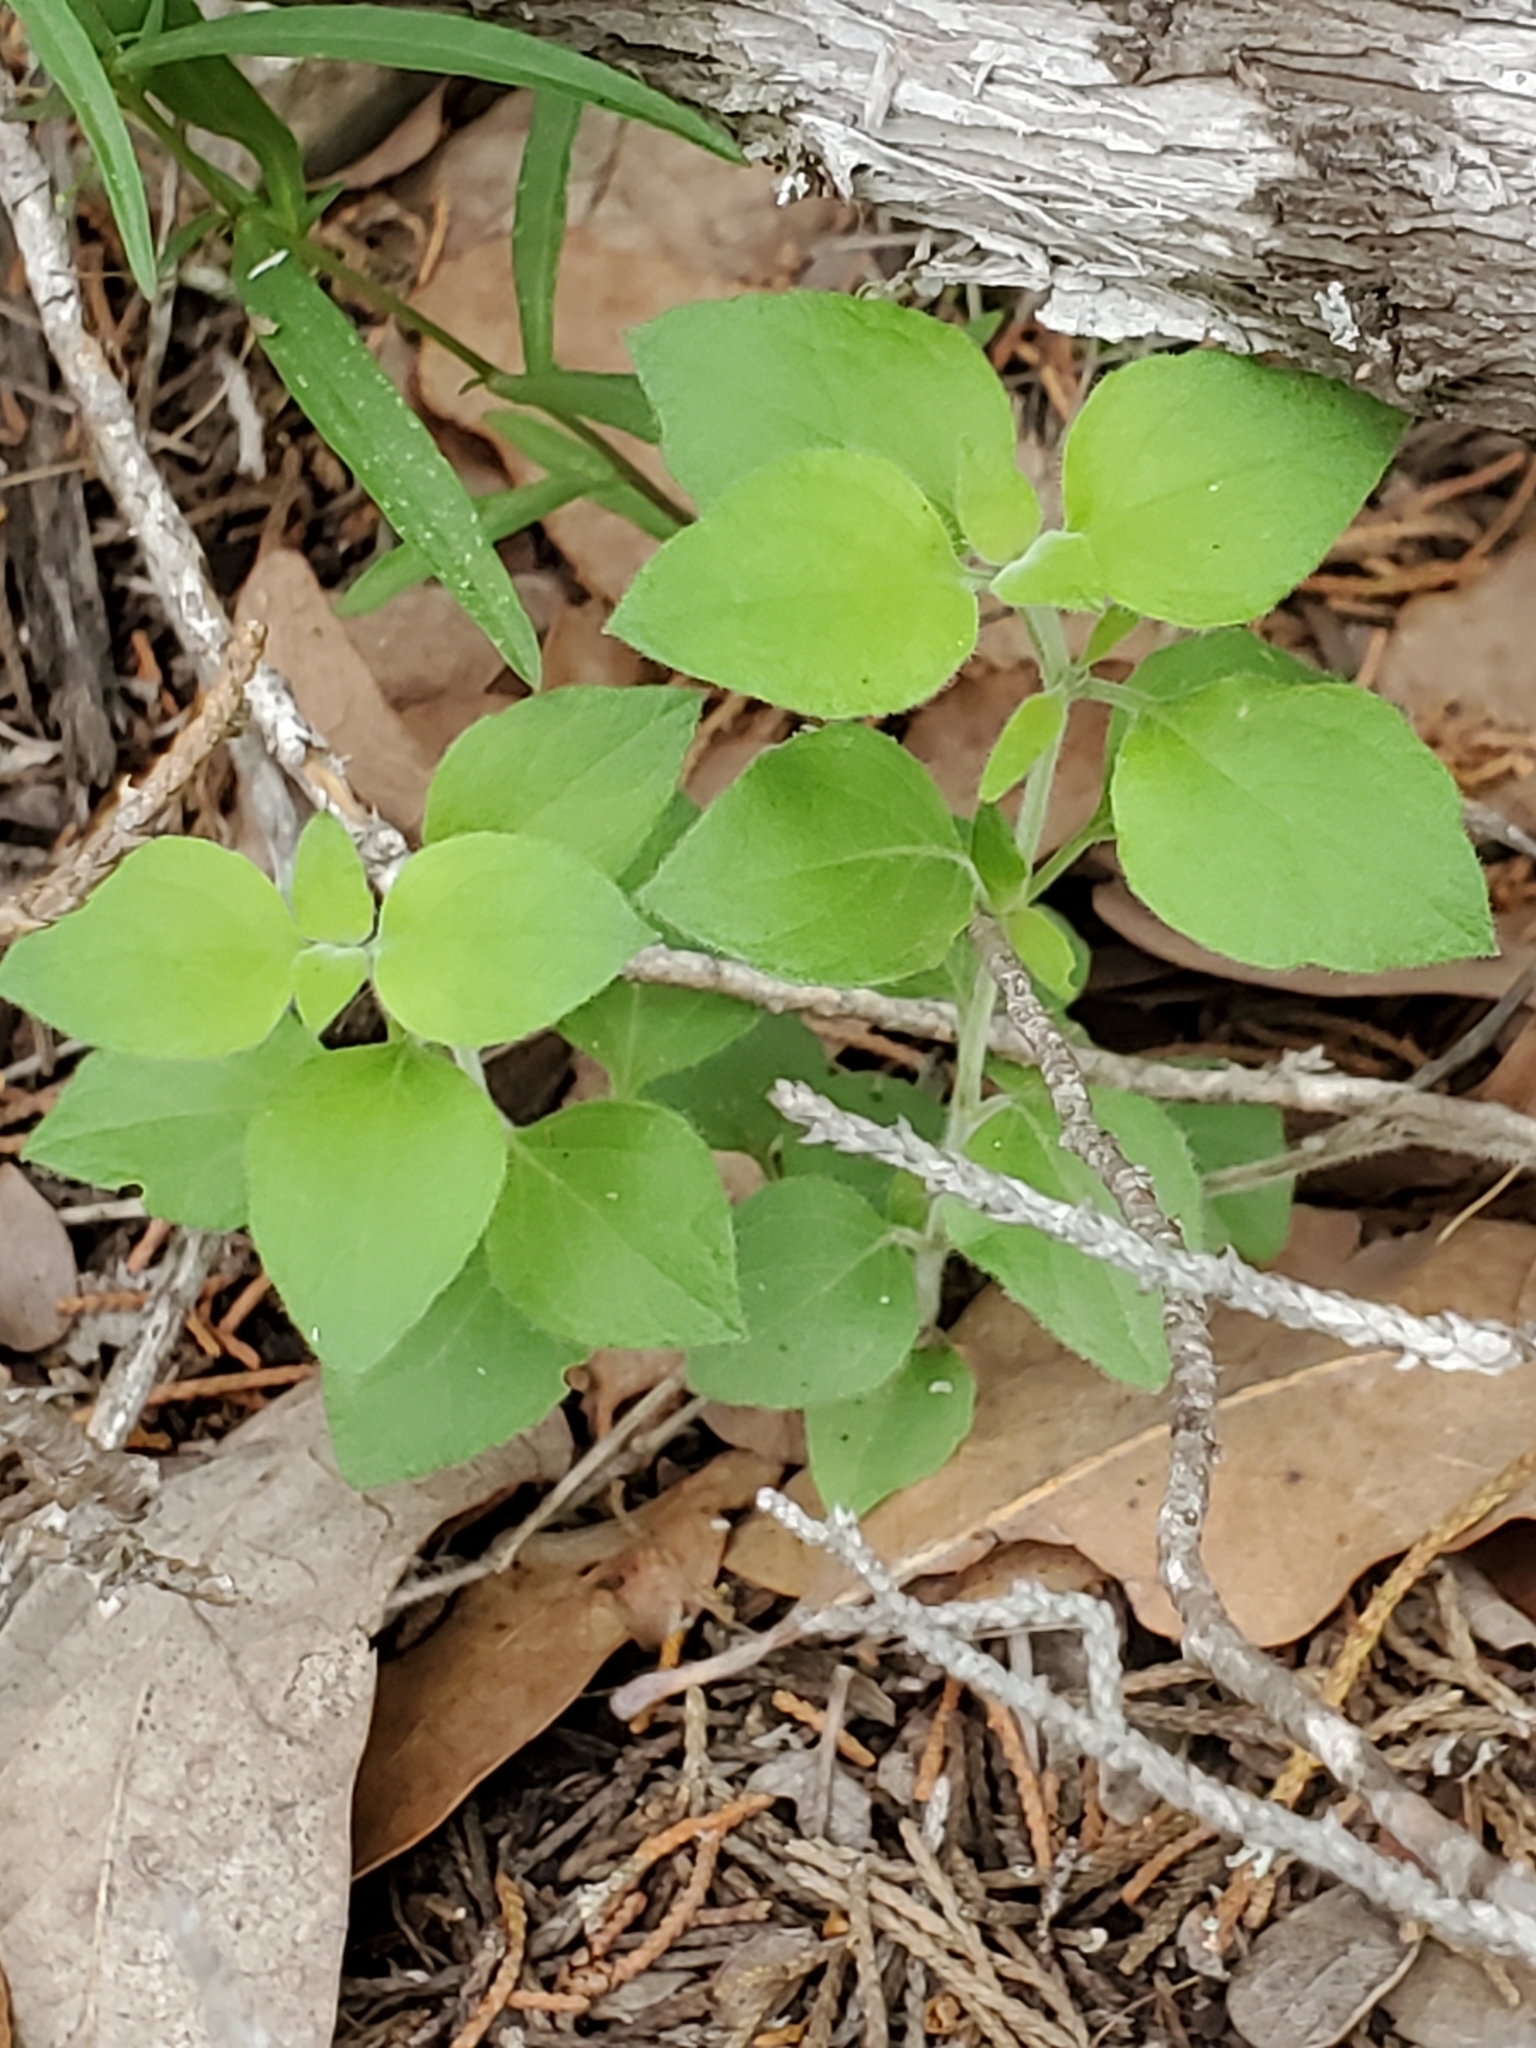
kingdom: Plantae
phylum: Tracheophyta
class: Magnoliopsida
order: Lamiales
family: Acanthaceae
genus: Carlowrightia
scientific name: Carlowrightia torreyana
